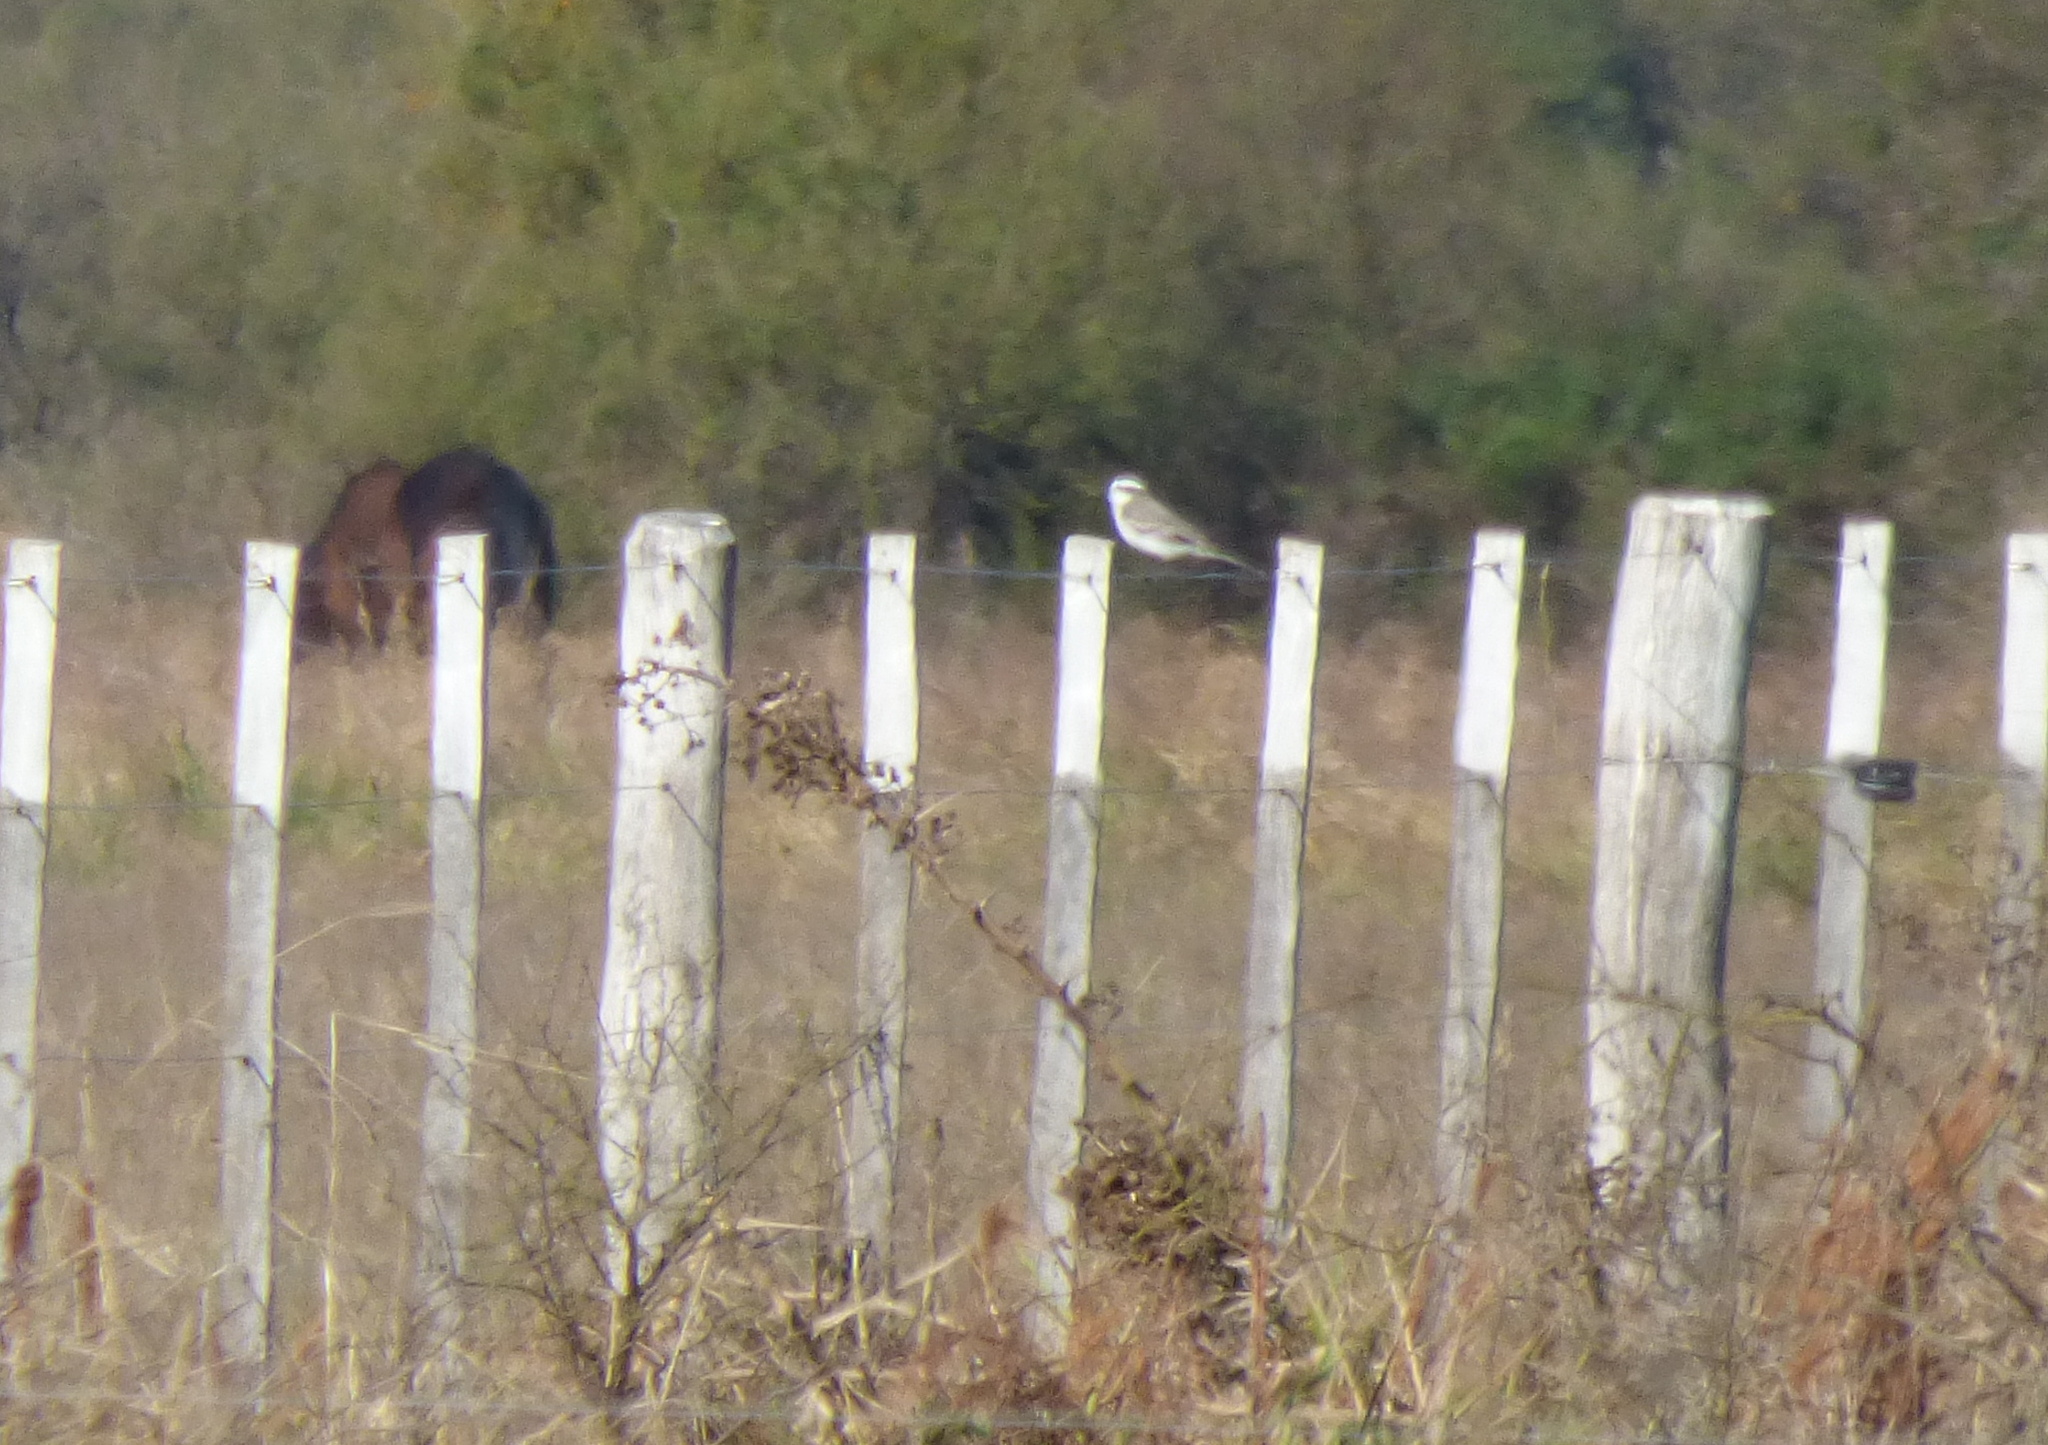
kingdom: Animalia
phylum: Chordata
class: Aves
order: Passeriformes
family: Tyrannidae
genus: Xolmis
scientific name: Xolmis coronatus
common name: Black-crowned monjita
